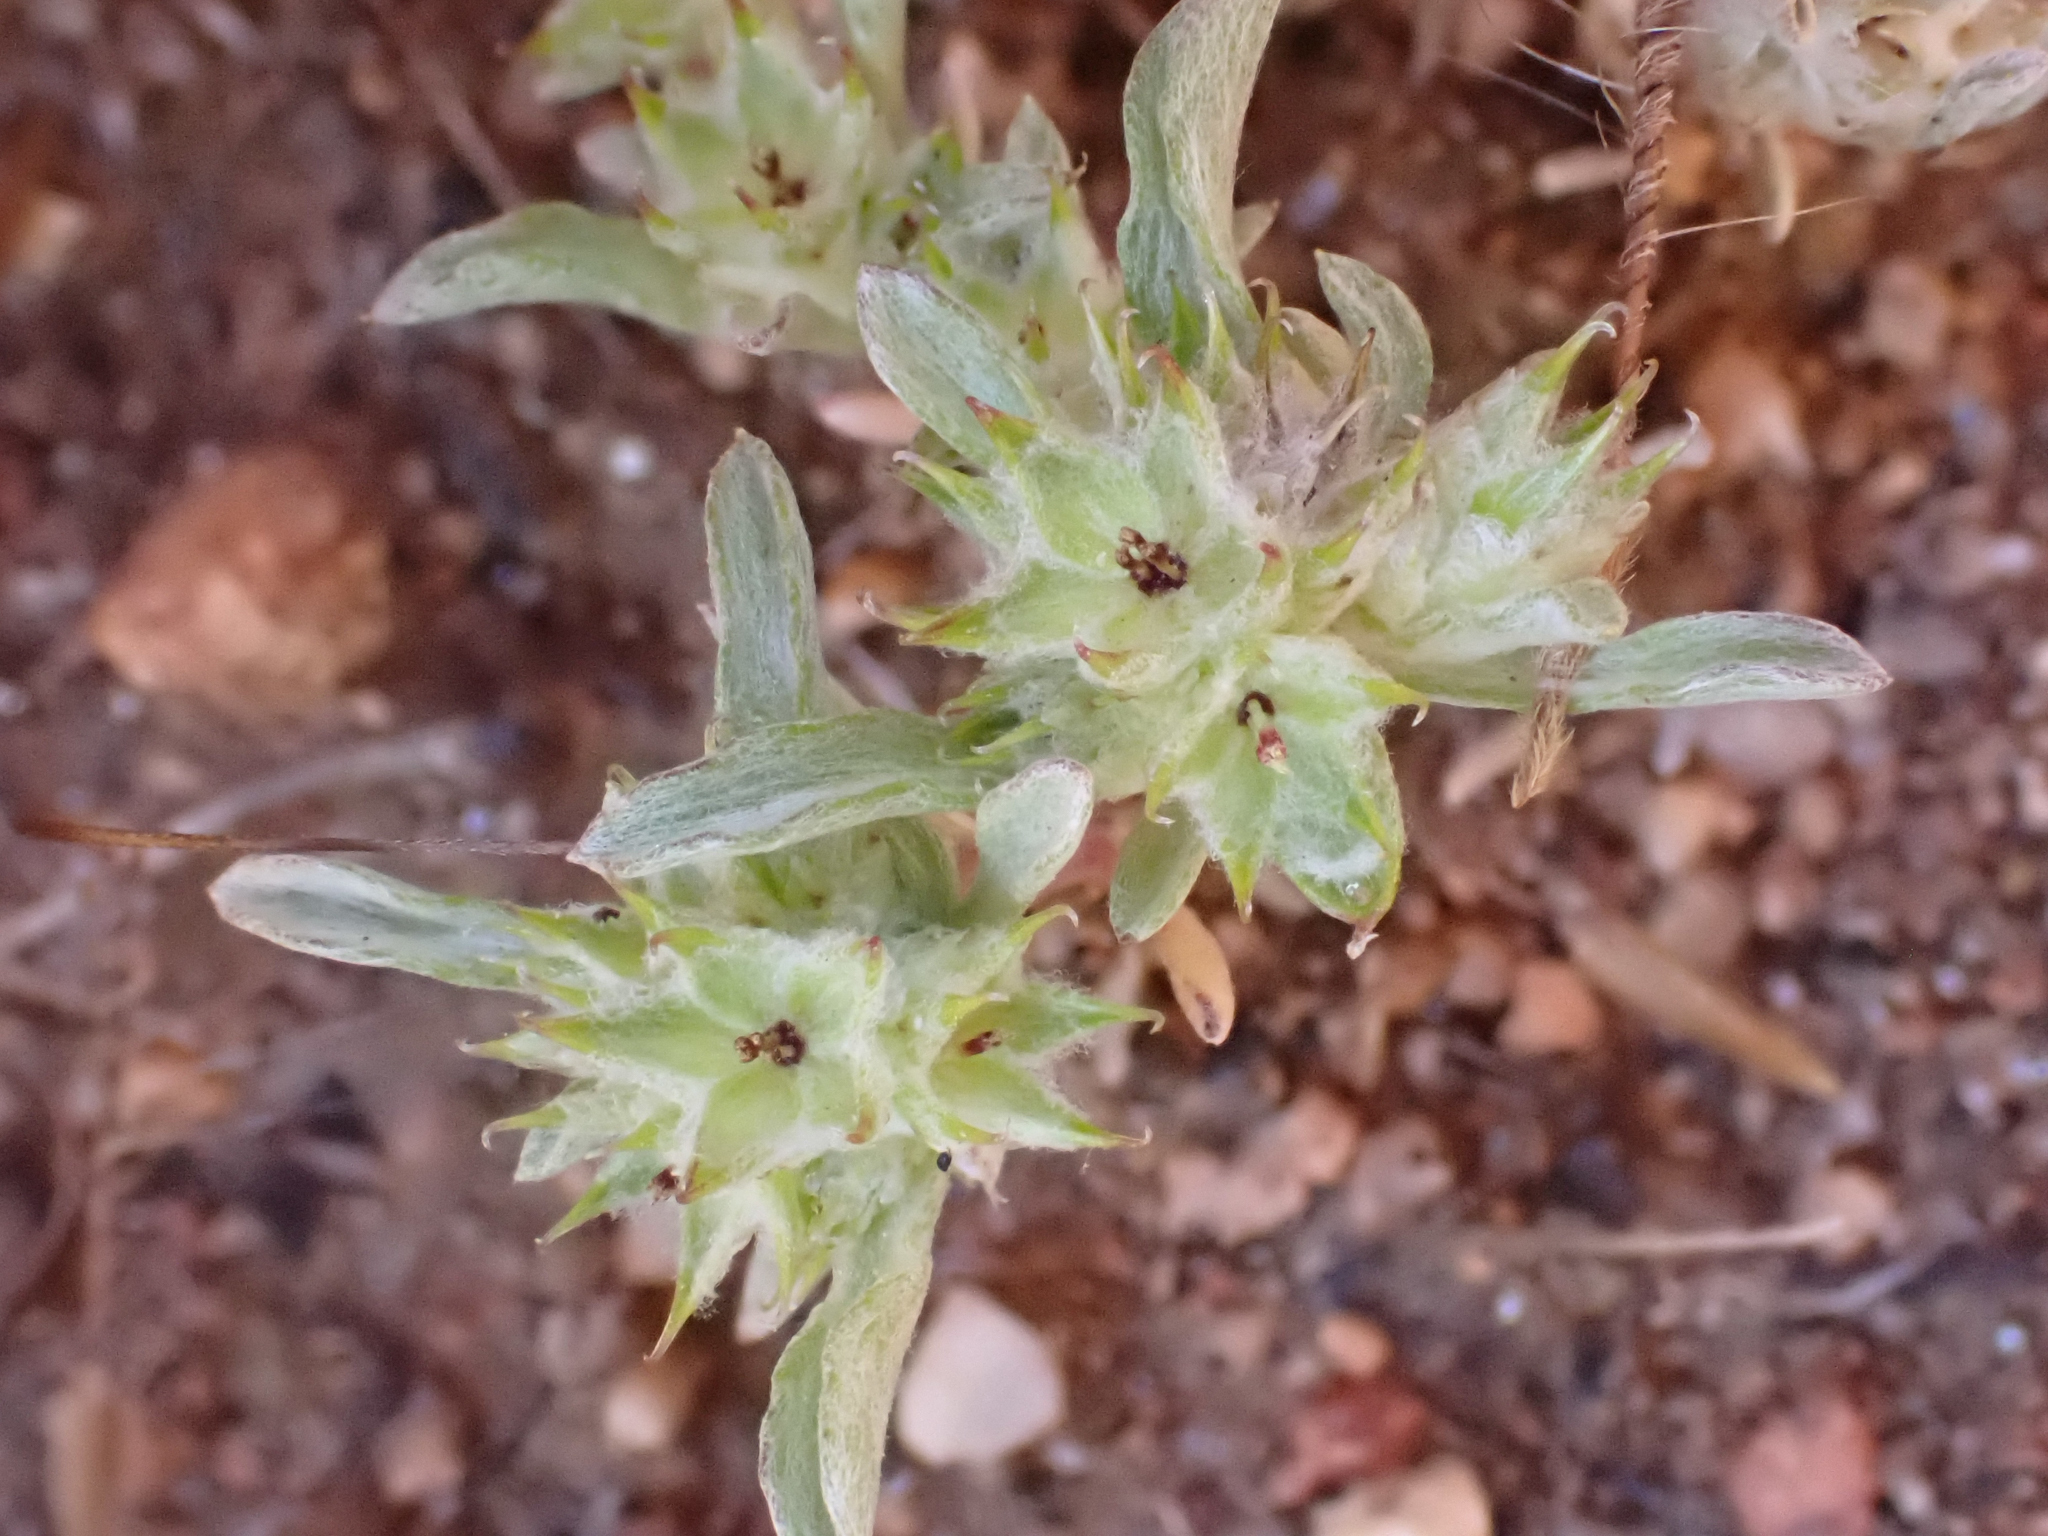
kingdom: Plantae
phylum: Tracheophyta
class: Magnoliopsida
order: Asterales
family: Asteraceae
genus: Ancistrocarphus
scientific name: Ancistrocarphus filagineus
